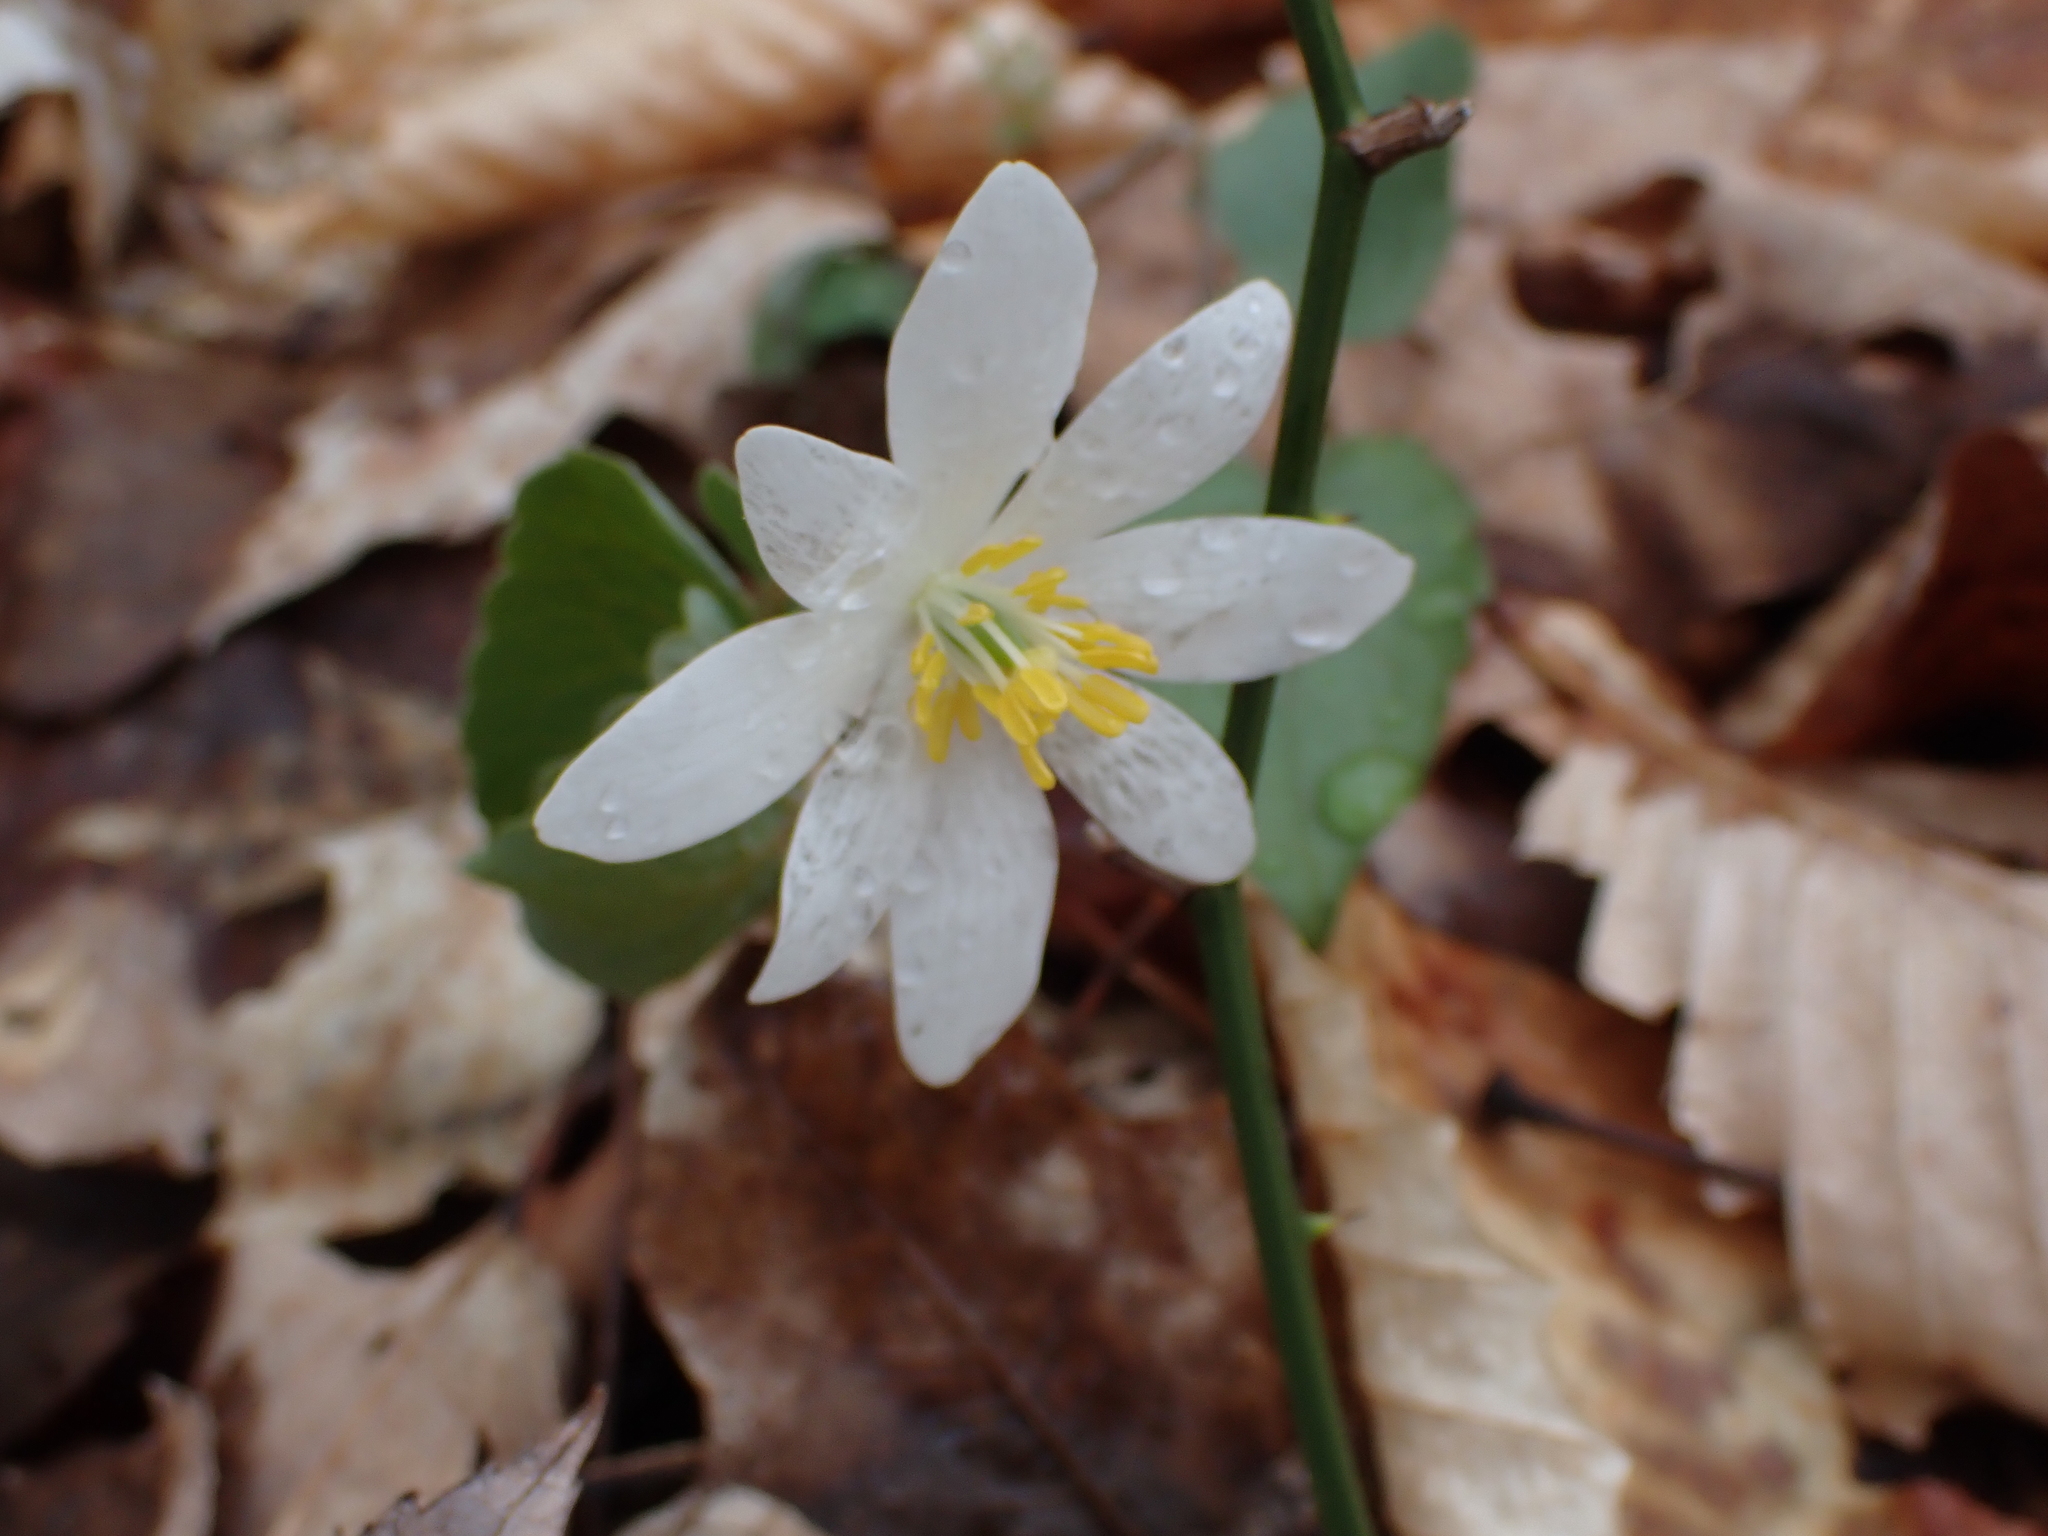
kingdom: Plantae
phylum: Tracheophyta
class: Magnoliopsida
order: Ranunculales
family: Papaveraceae
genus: Sanguinaria
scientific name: Sanguinaria canadensis
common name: Bloodroot
